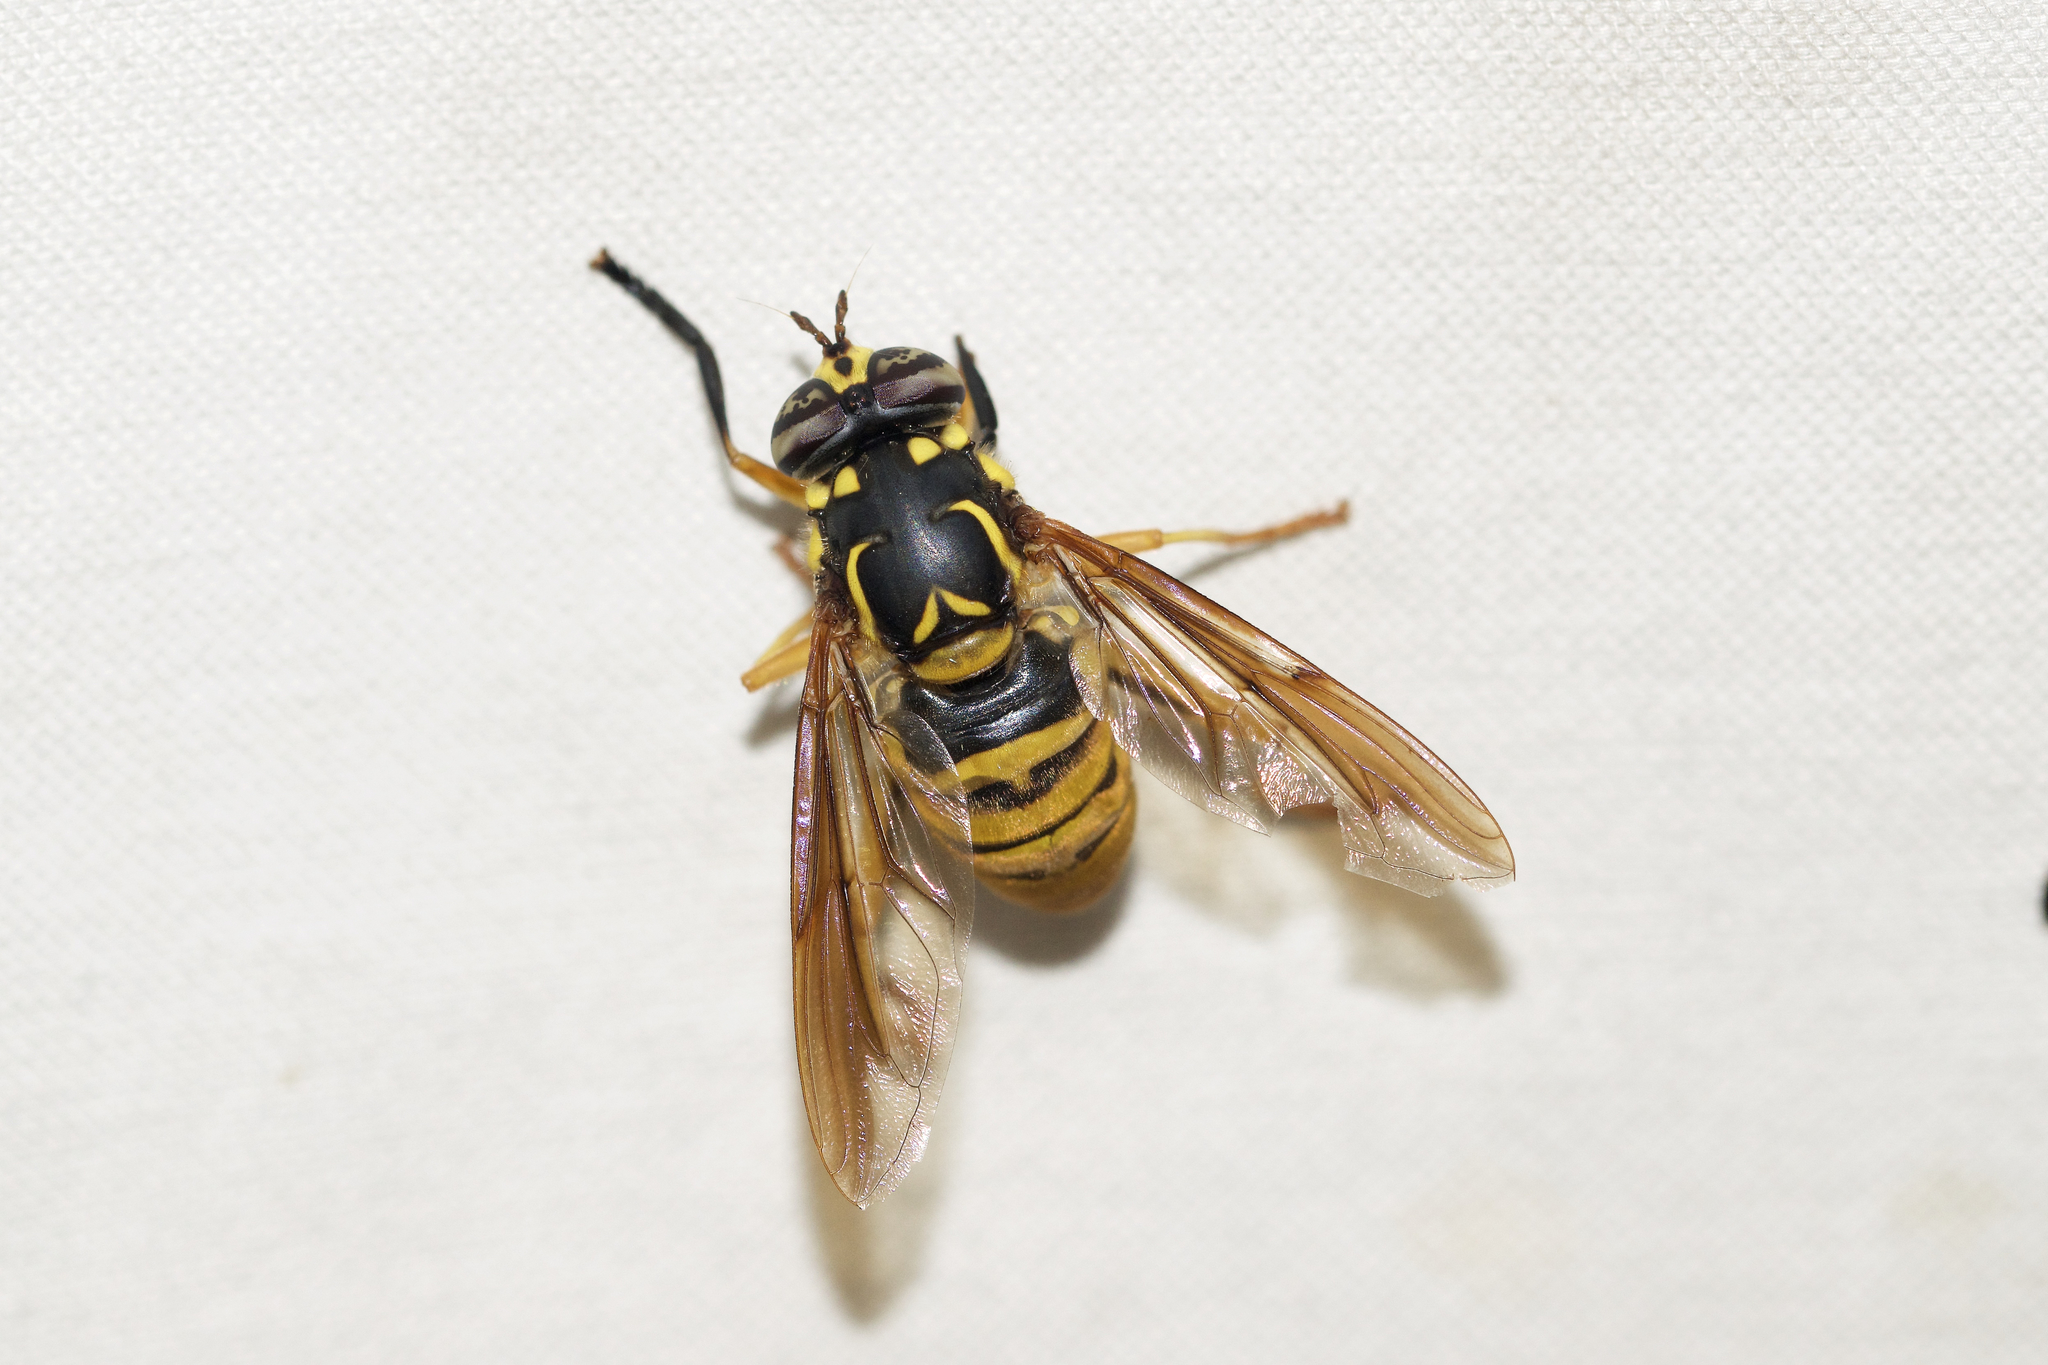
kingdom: Animalia
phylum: Arthropoda
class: Insecta
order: Diptera
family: Syrphidae
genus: Spilomyia
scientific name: Spilomyia alcimus
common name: Broad-banded hornet fly
